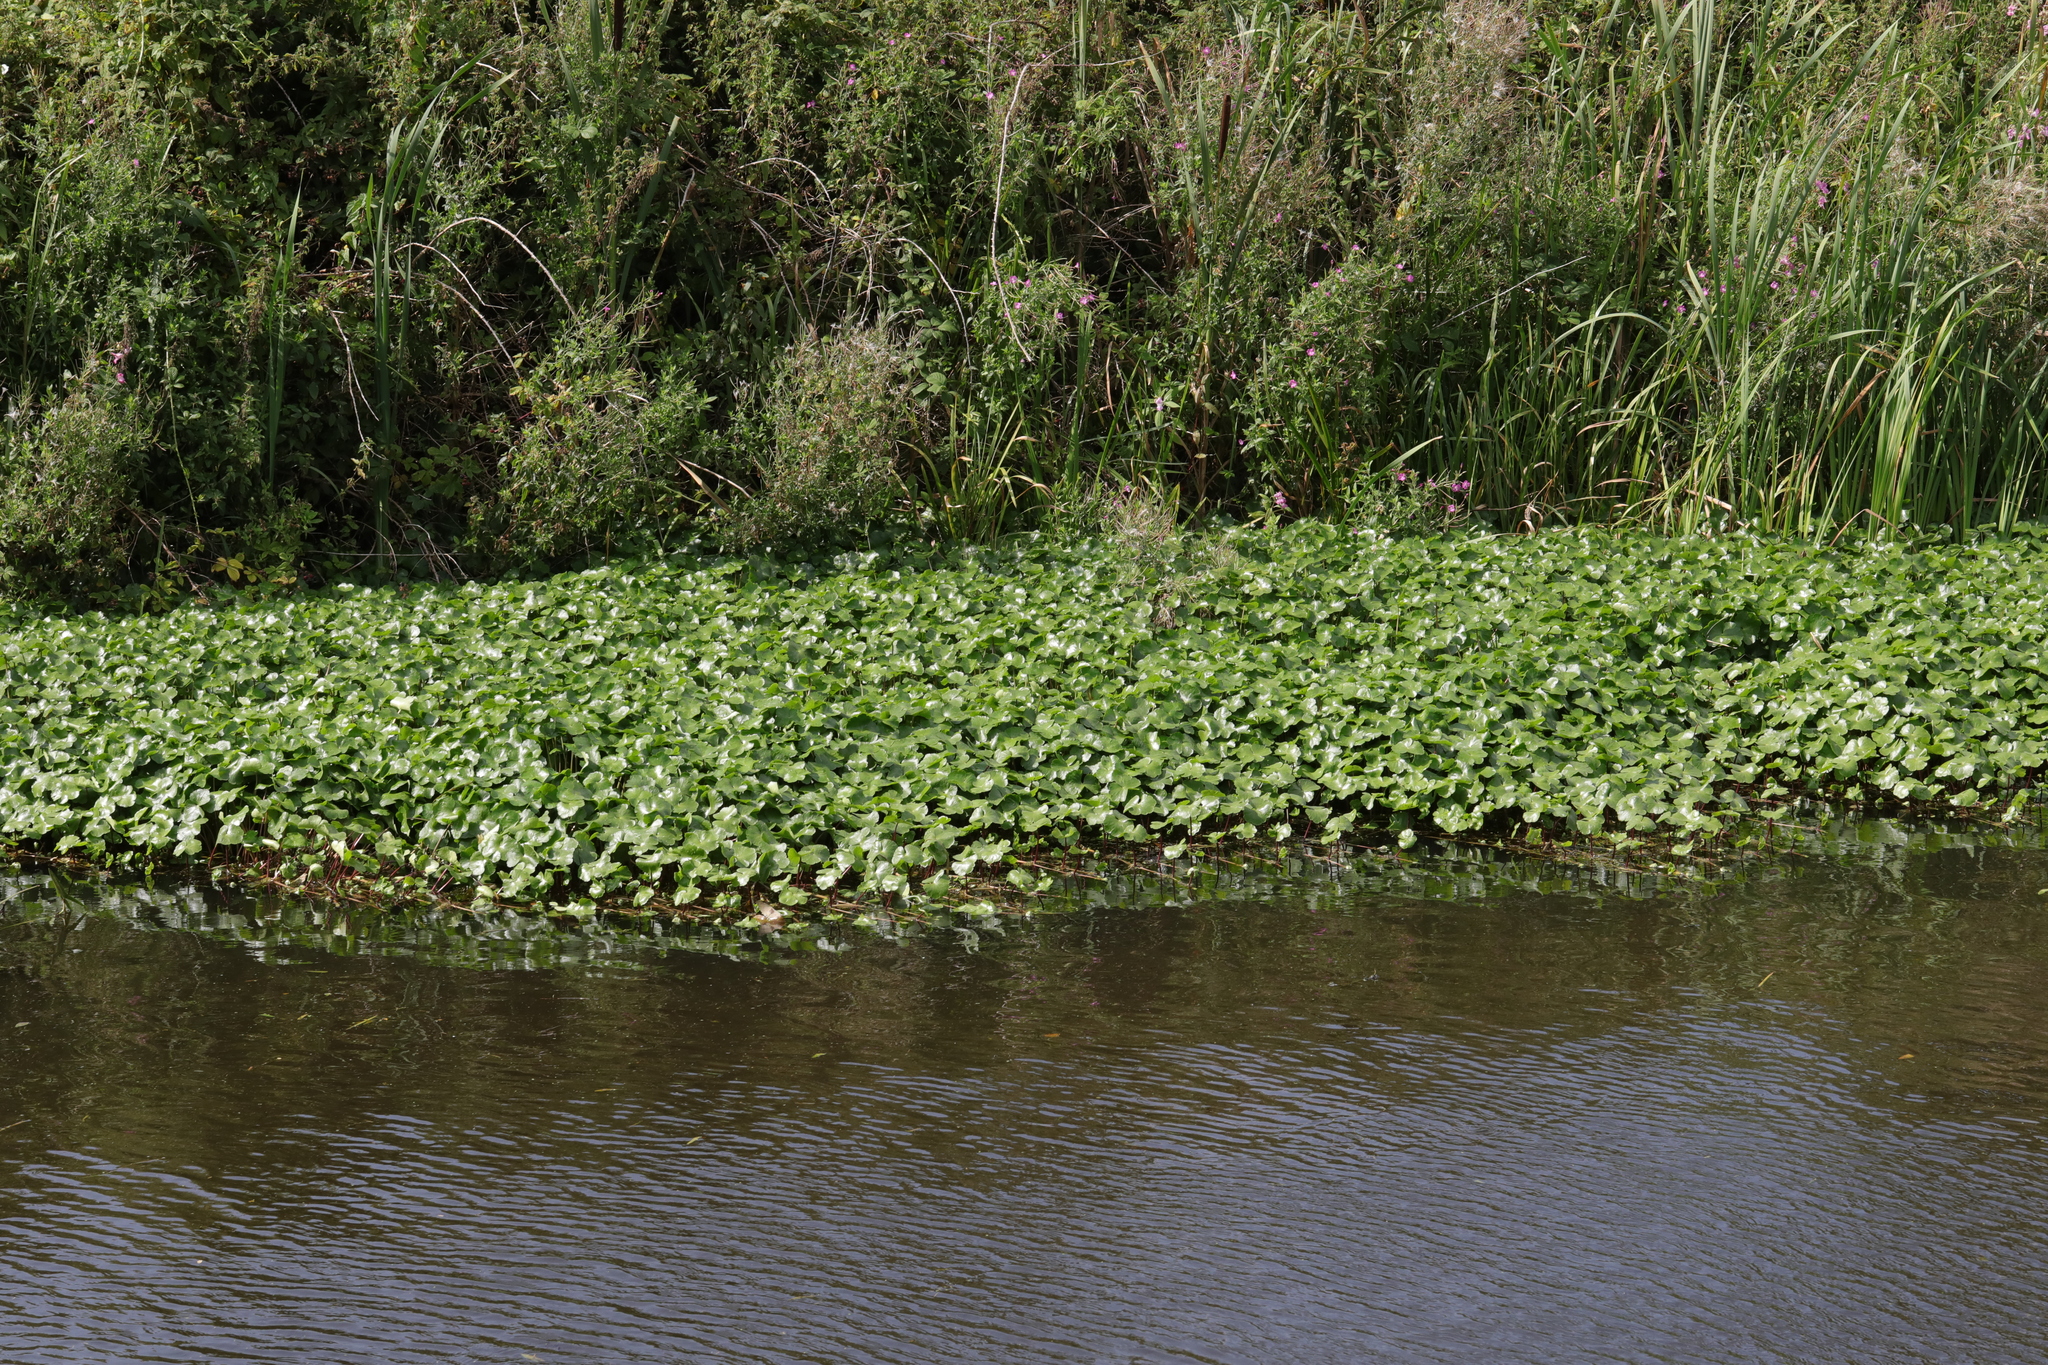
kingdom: Plantae
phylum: Tracheophyta
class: Magnoliopsida
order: Apiales
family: Araliaceae
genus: Hydrocotyle
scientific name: Hydrocotyle ranunculoides
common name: Floating pennywort
